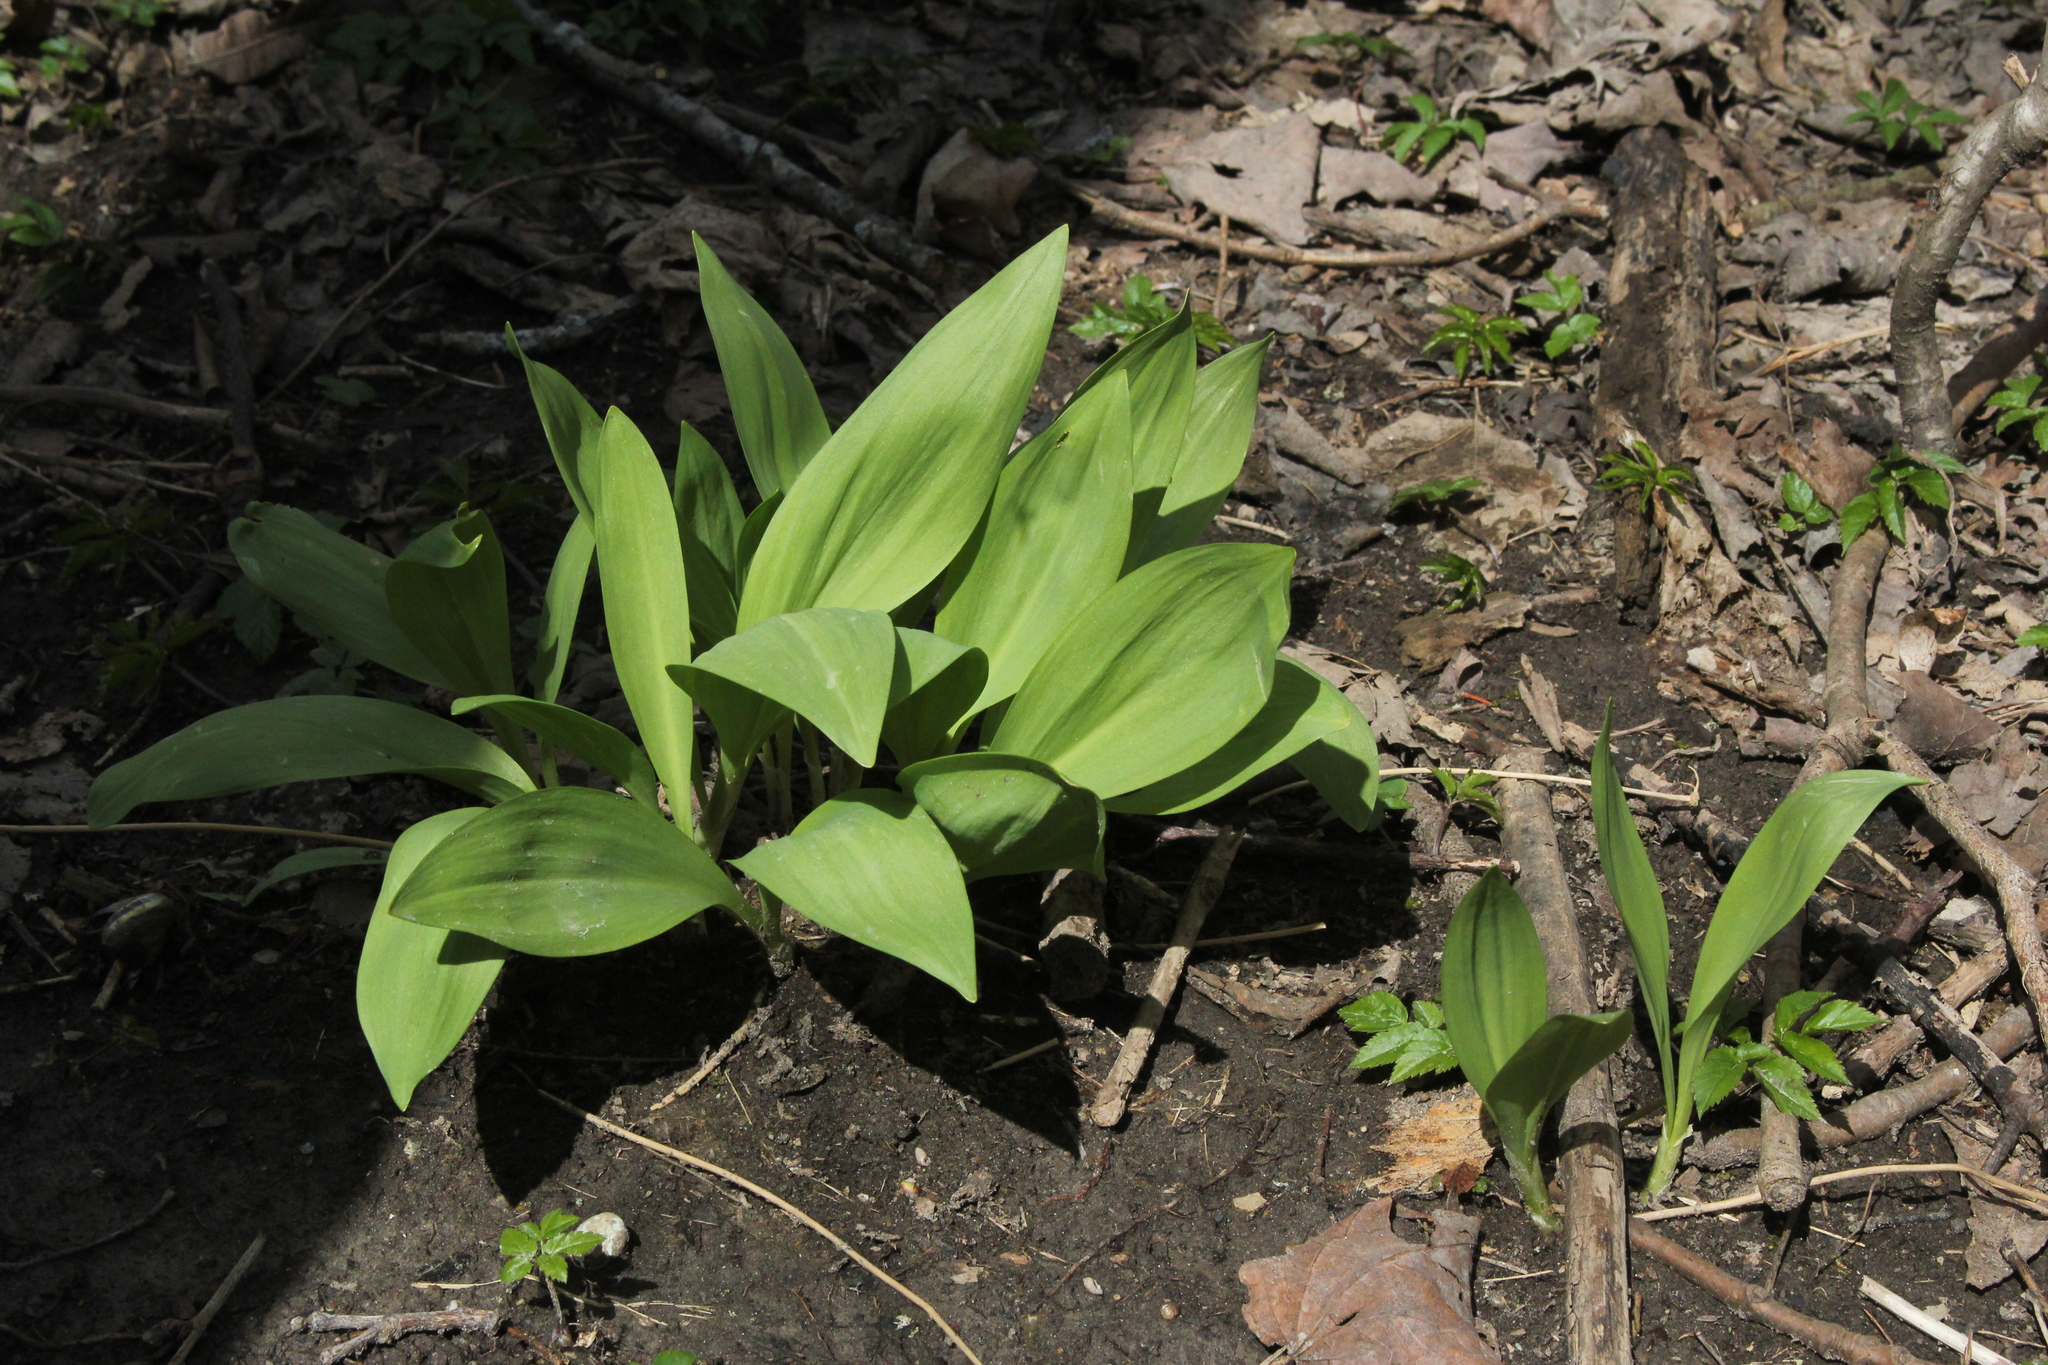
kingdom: Plantae
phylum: Tracheophyta
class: Liliopsida
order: Asparagales
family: Amaryllidaceae
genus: Allium
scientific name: Allium tricoccum
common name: Ramp
